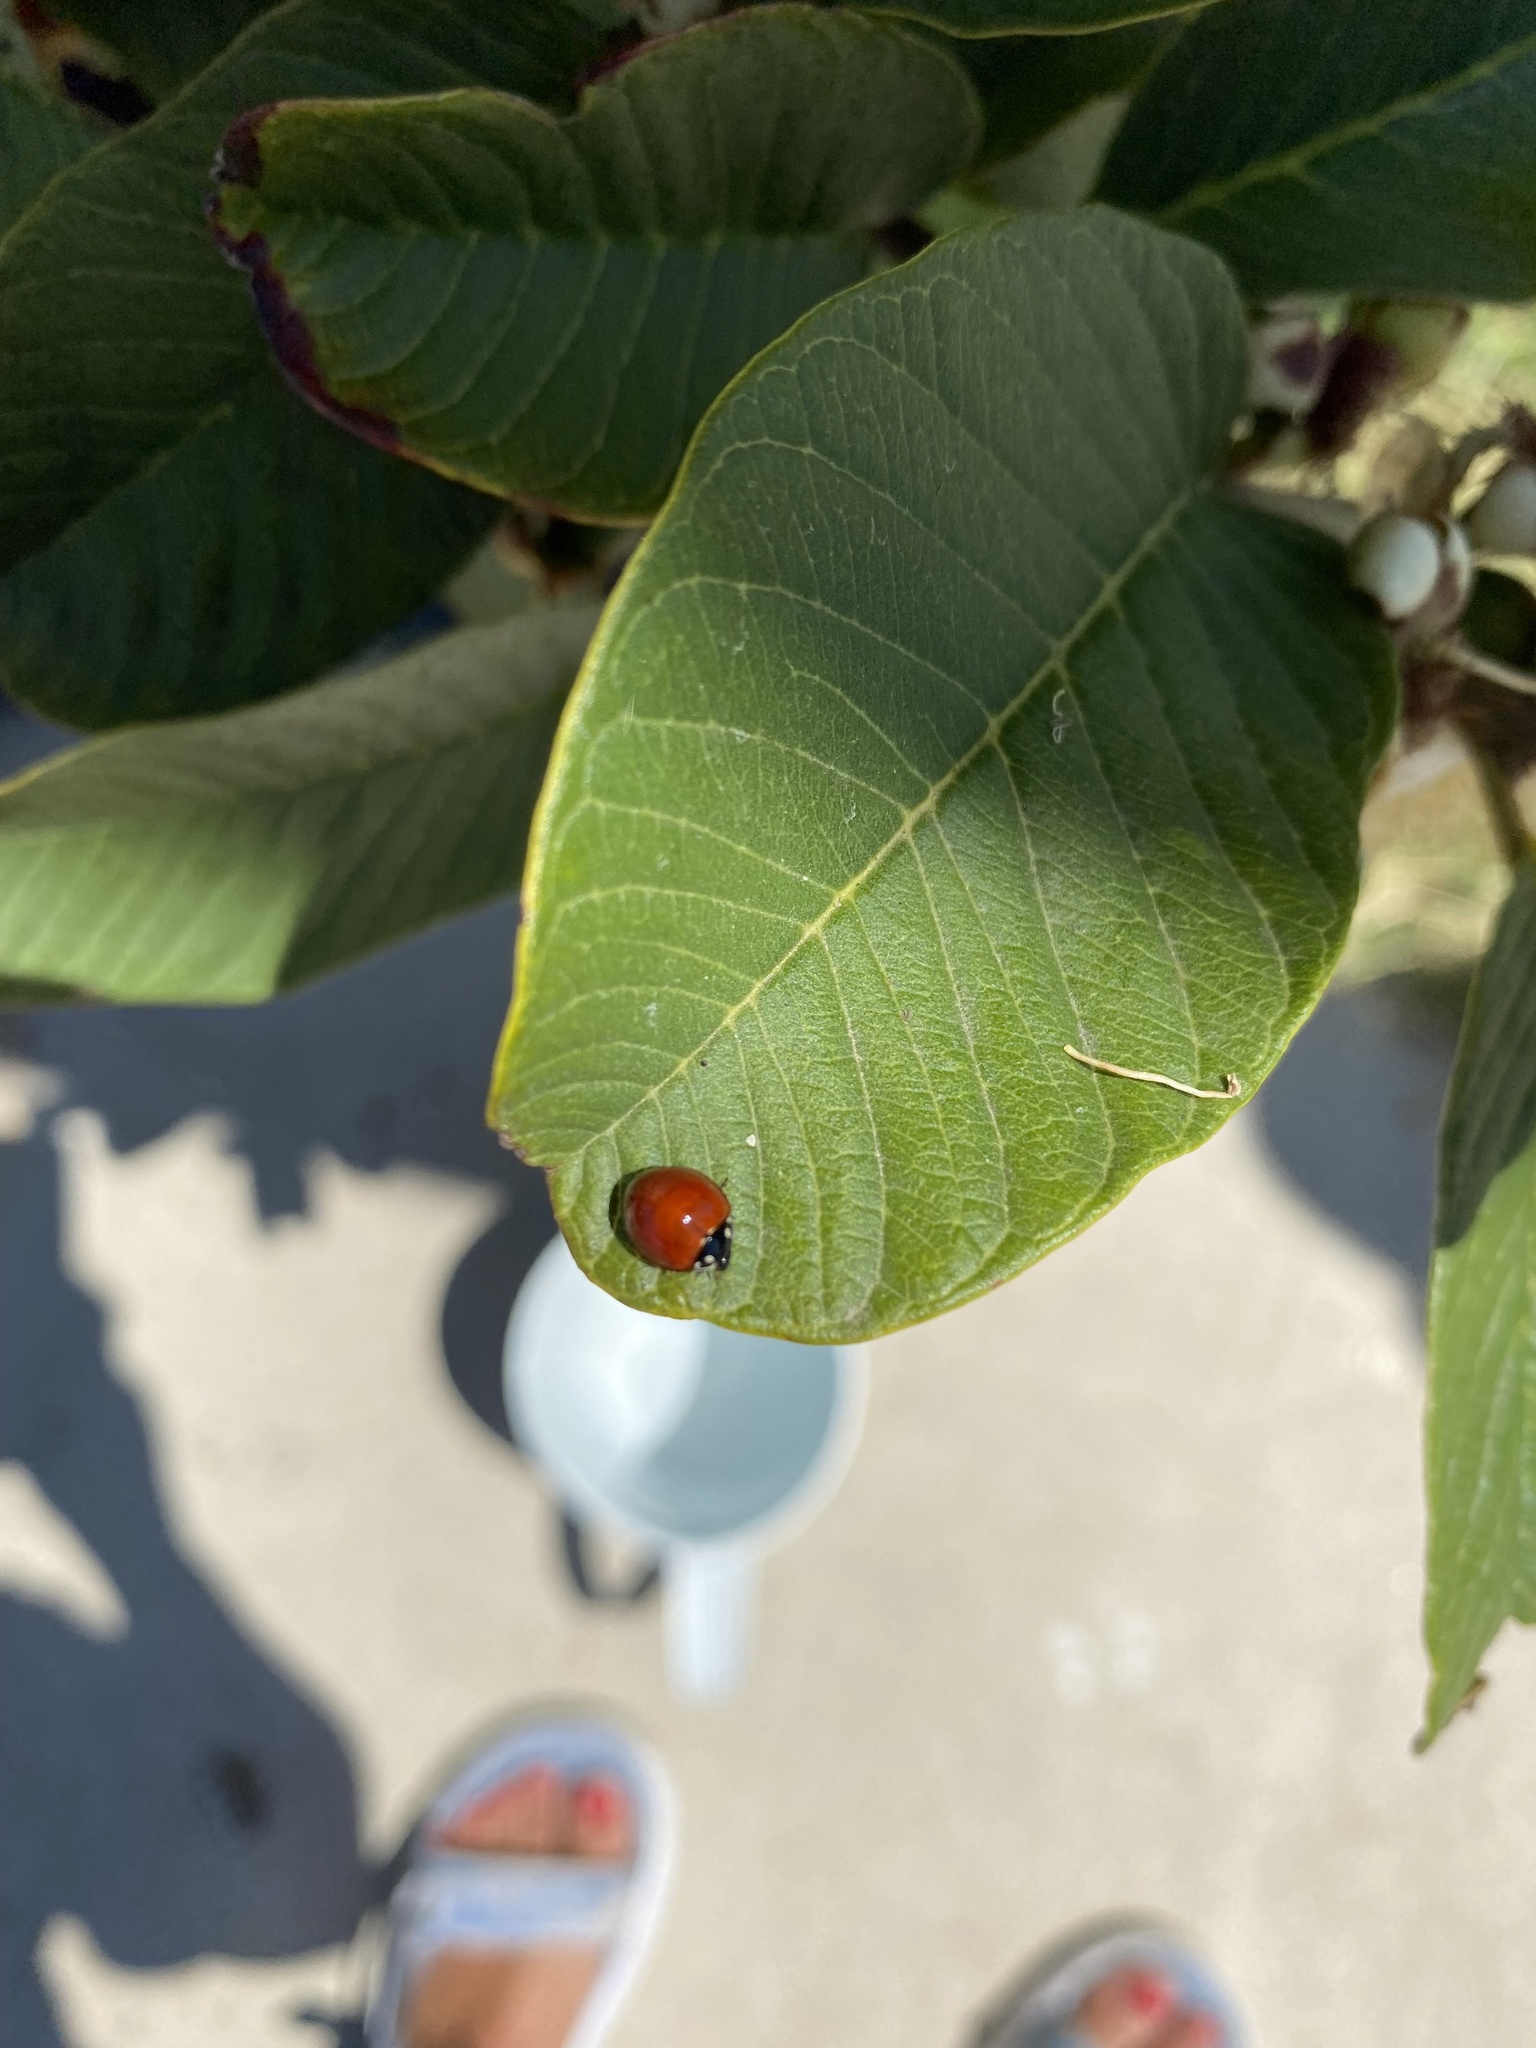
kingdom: Animalia
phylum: Arthropoda
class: Insecta
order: Coleoptera
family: Coccinellidae
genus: Cycloneda
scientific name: Cycloneda sanguinea
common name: Ladybird beetle
